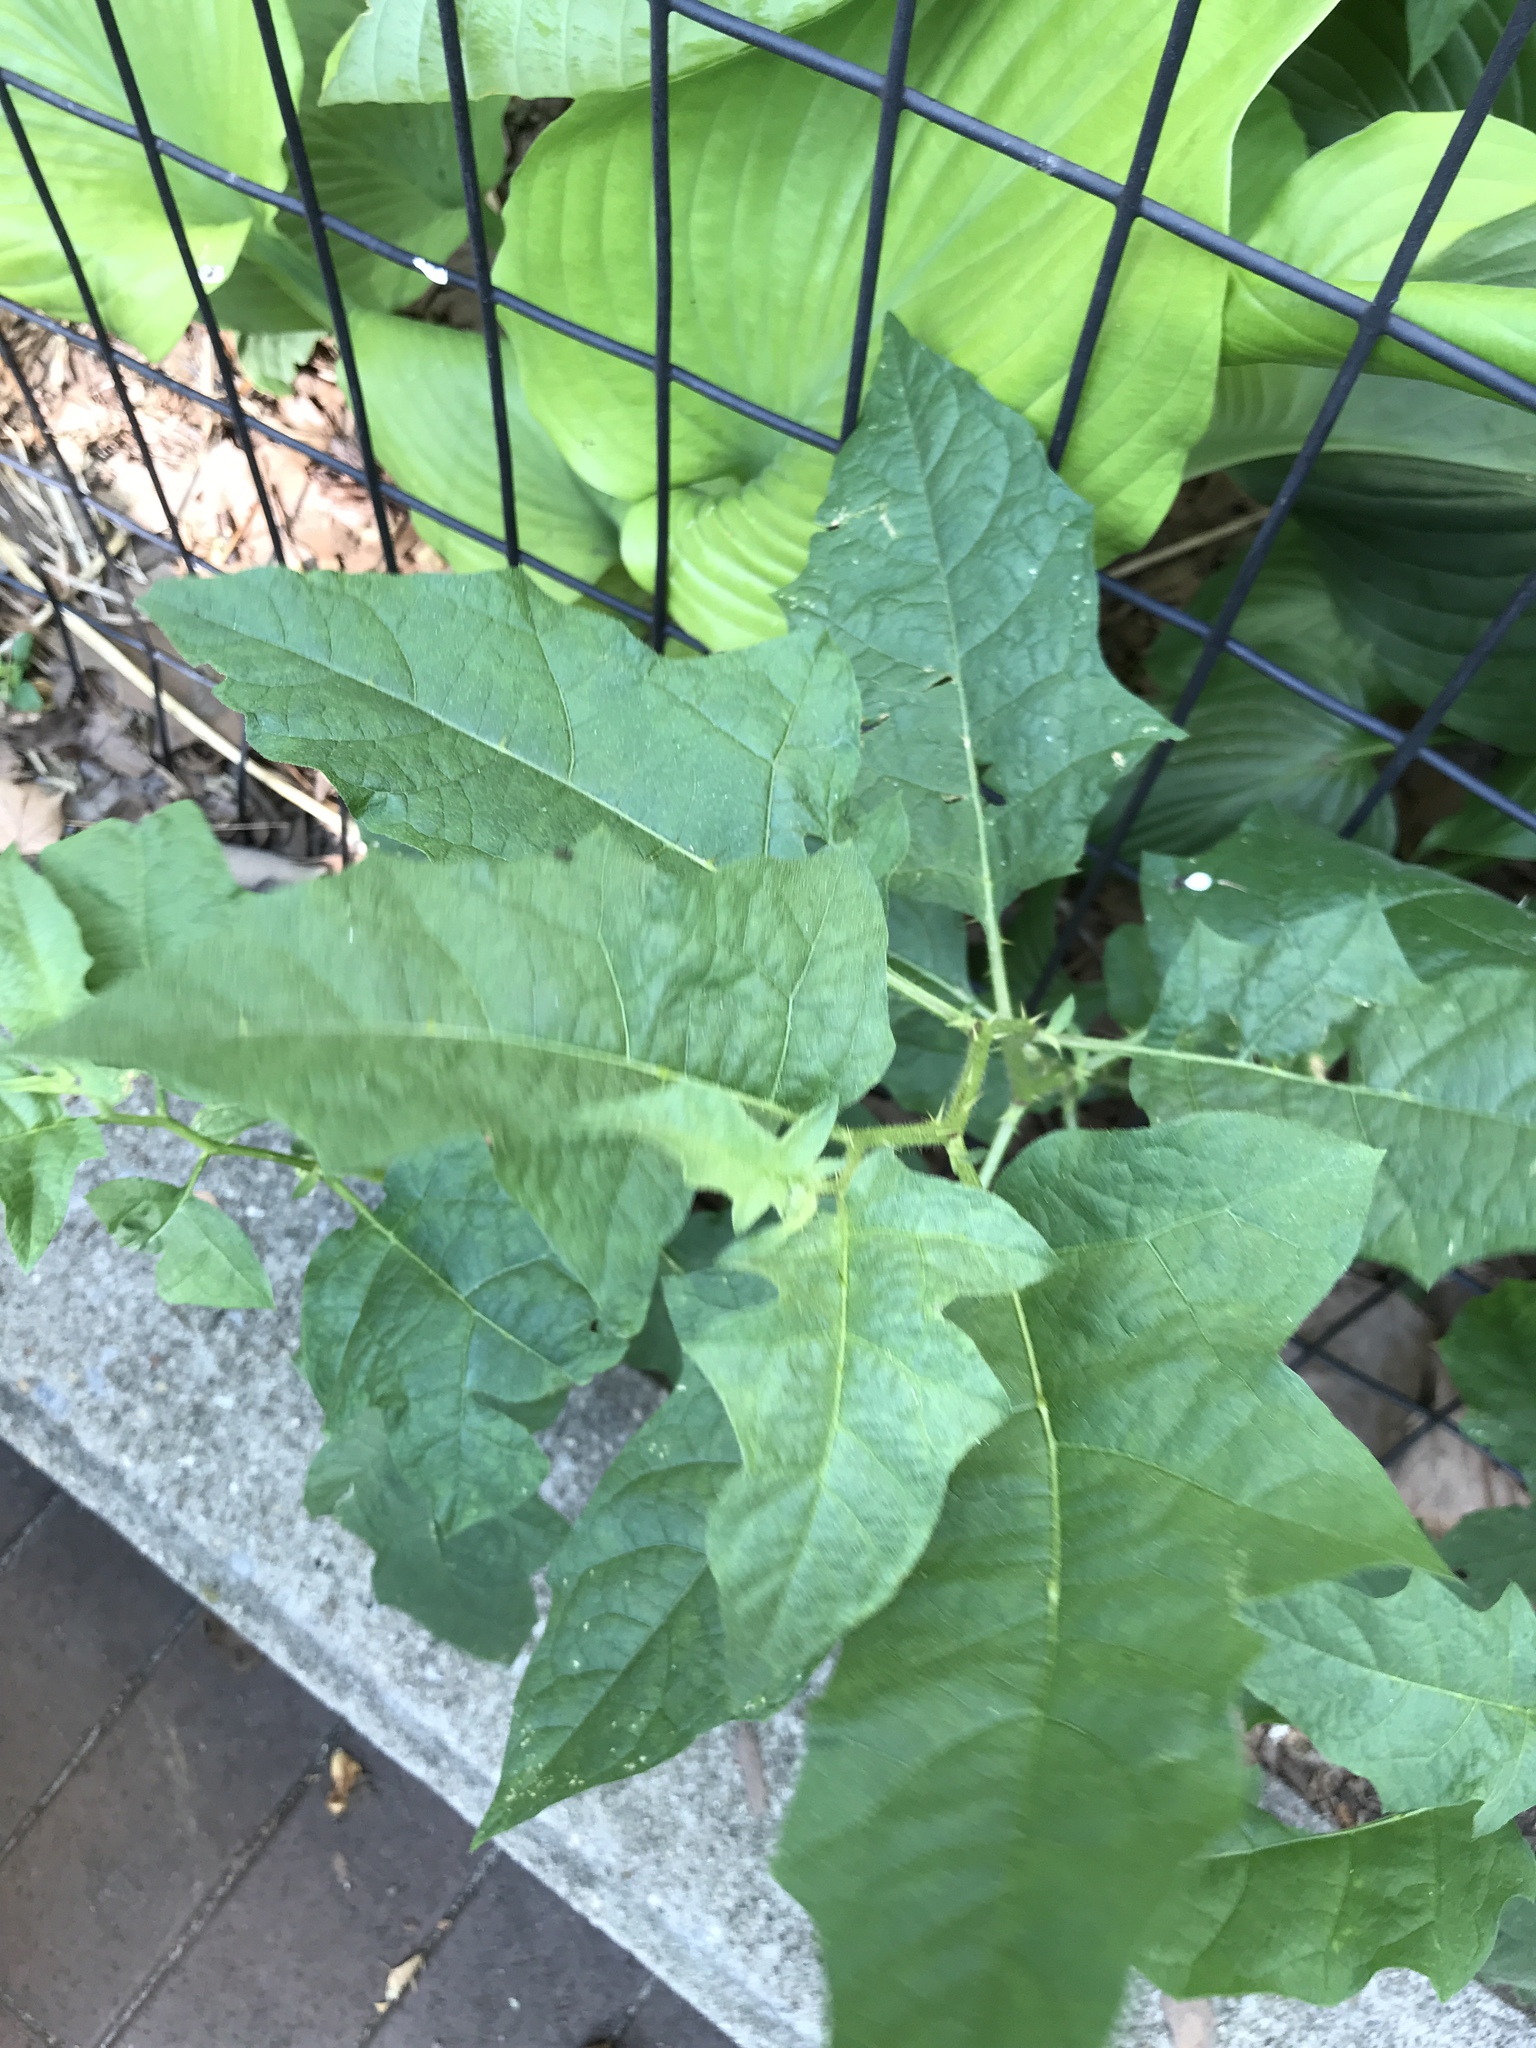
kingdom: Plantae
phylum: Tracheophyta
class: Magnoliopsida
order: Solanales
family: Solanaceae
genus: Solanum
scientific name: Solanum carolinense
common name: Horse-nettle
